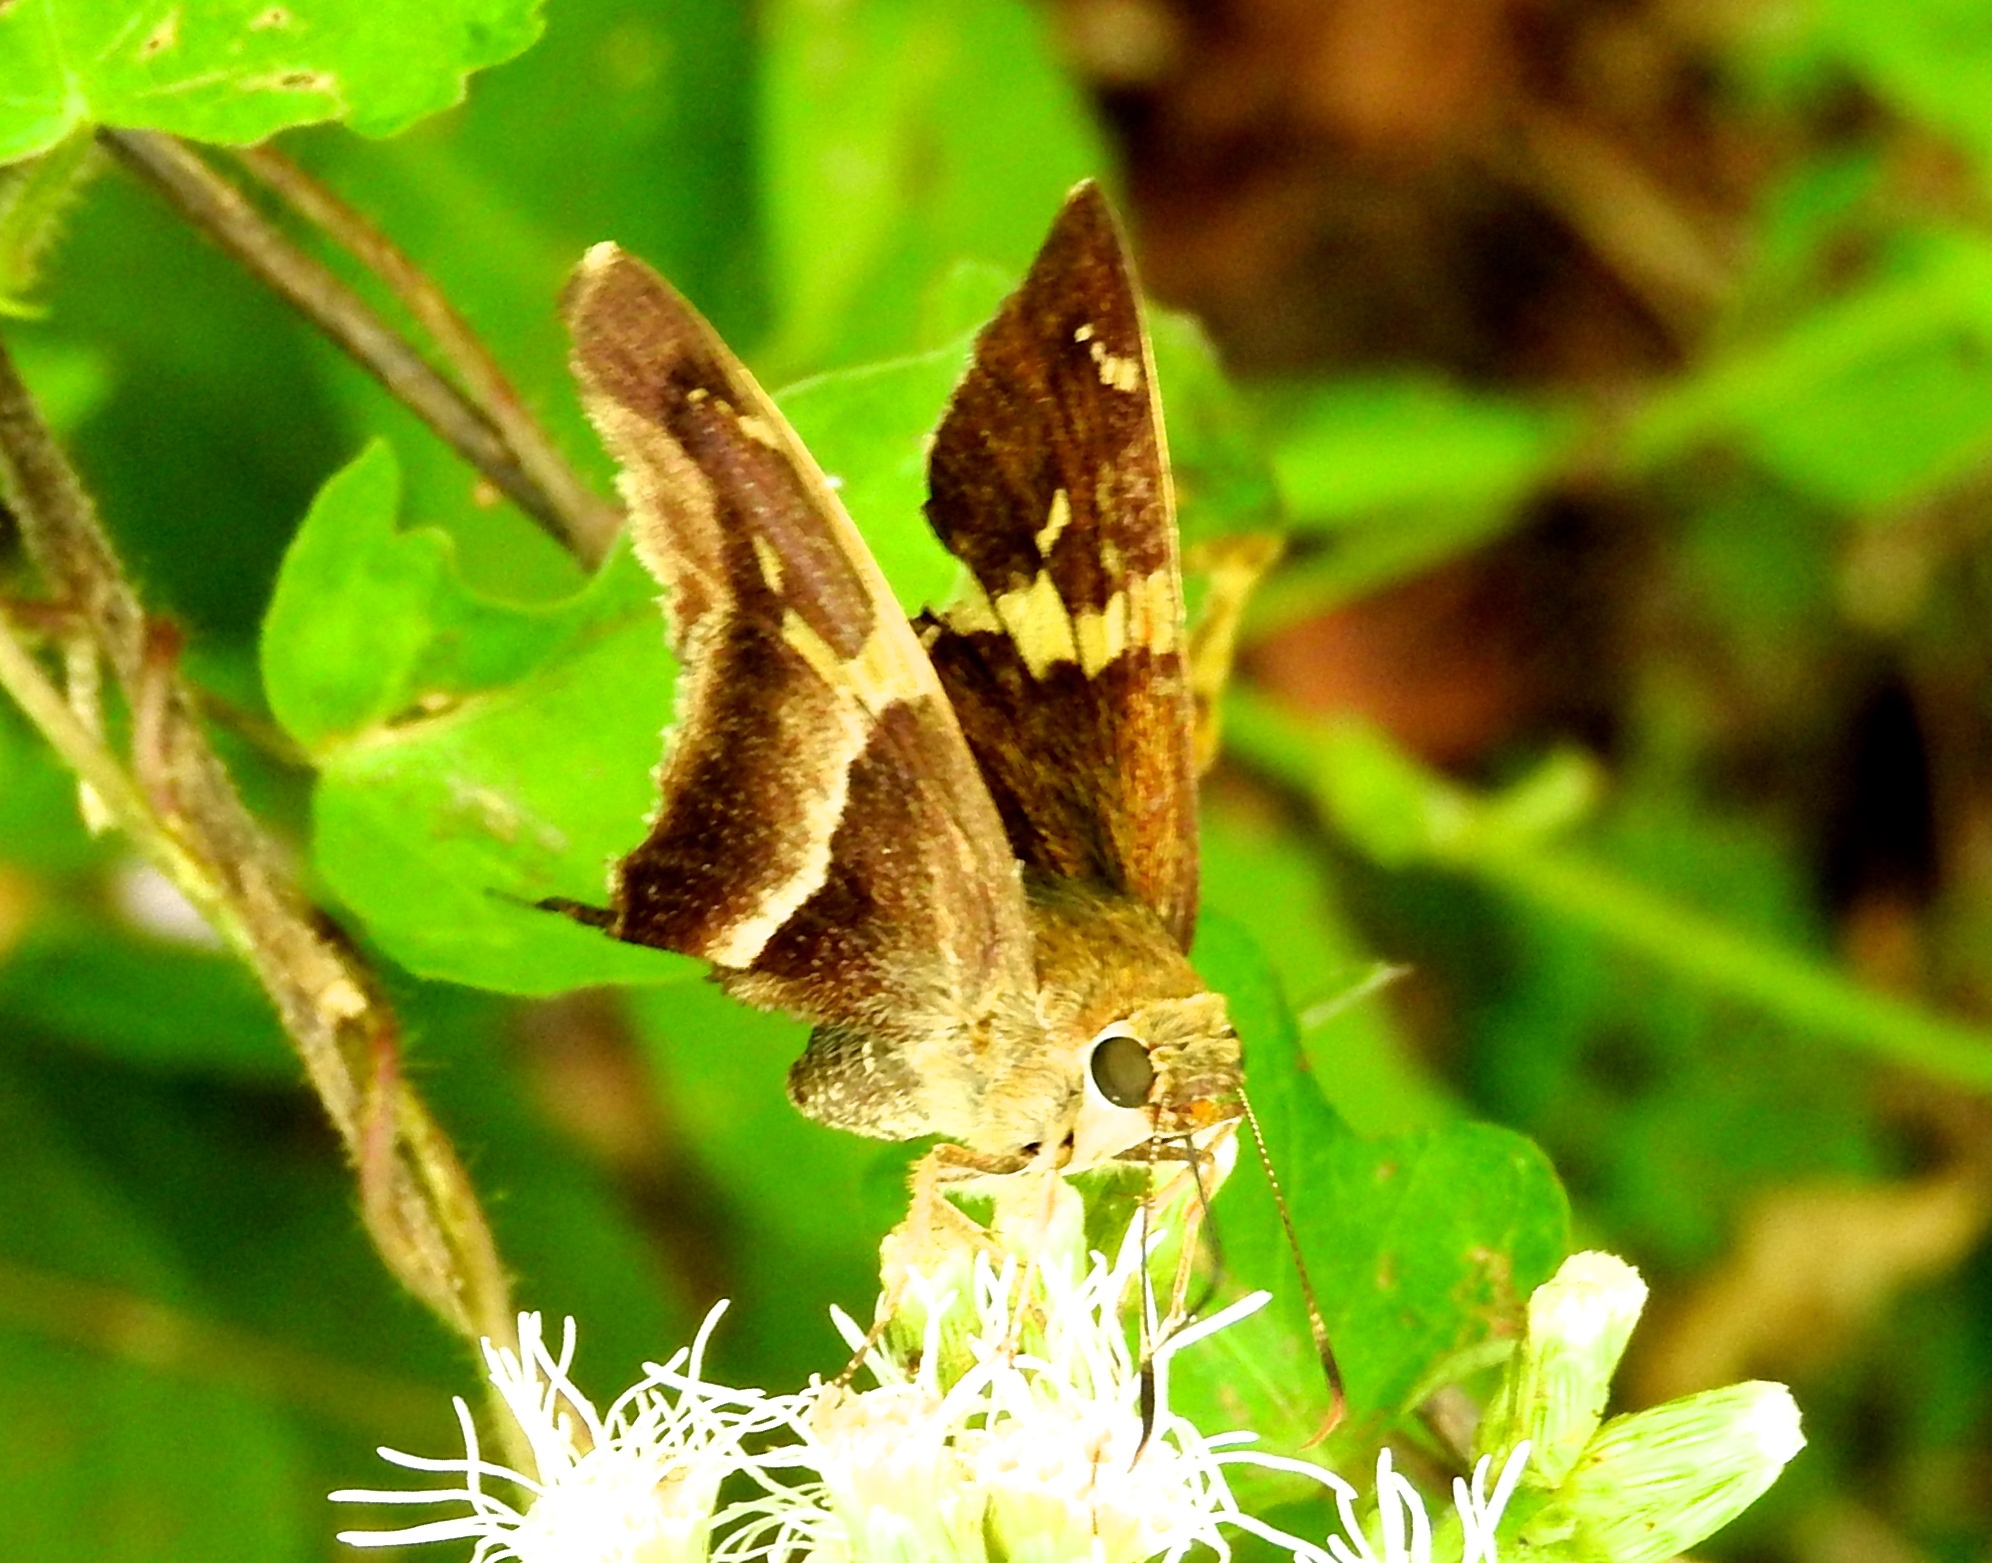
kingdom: Animalia
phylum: Arthropoda
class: Insecta
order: Lepidoptera
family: Hesperiidae
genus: Aguna
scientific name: Aguna metophis
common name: Tailed aguna
